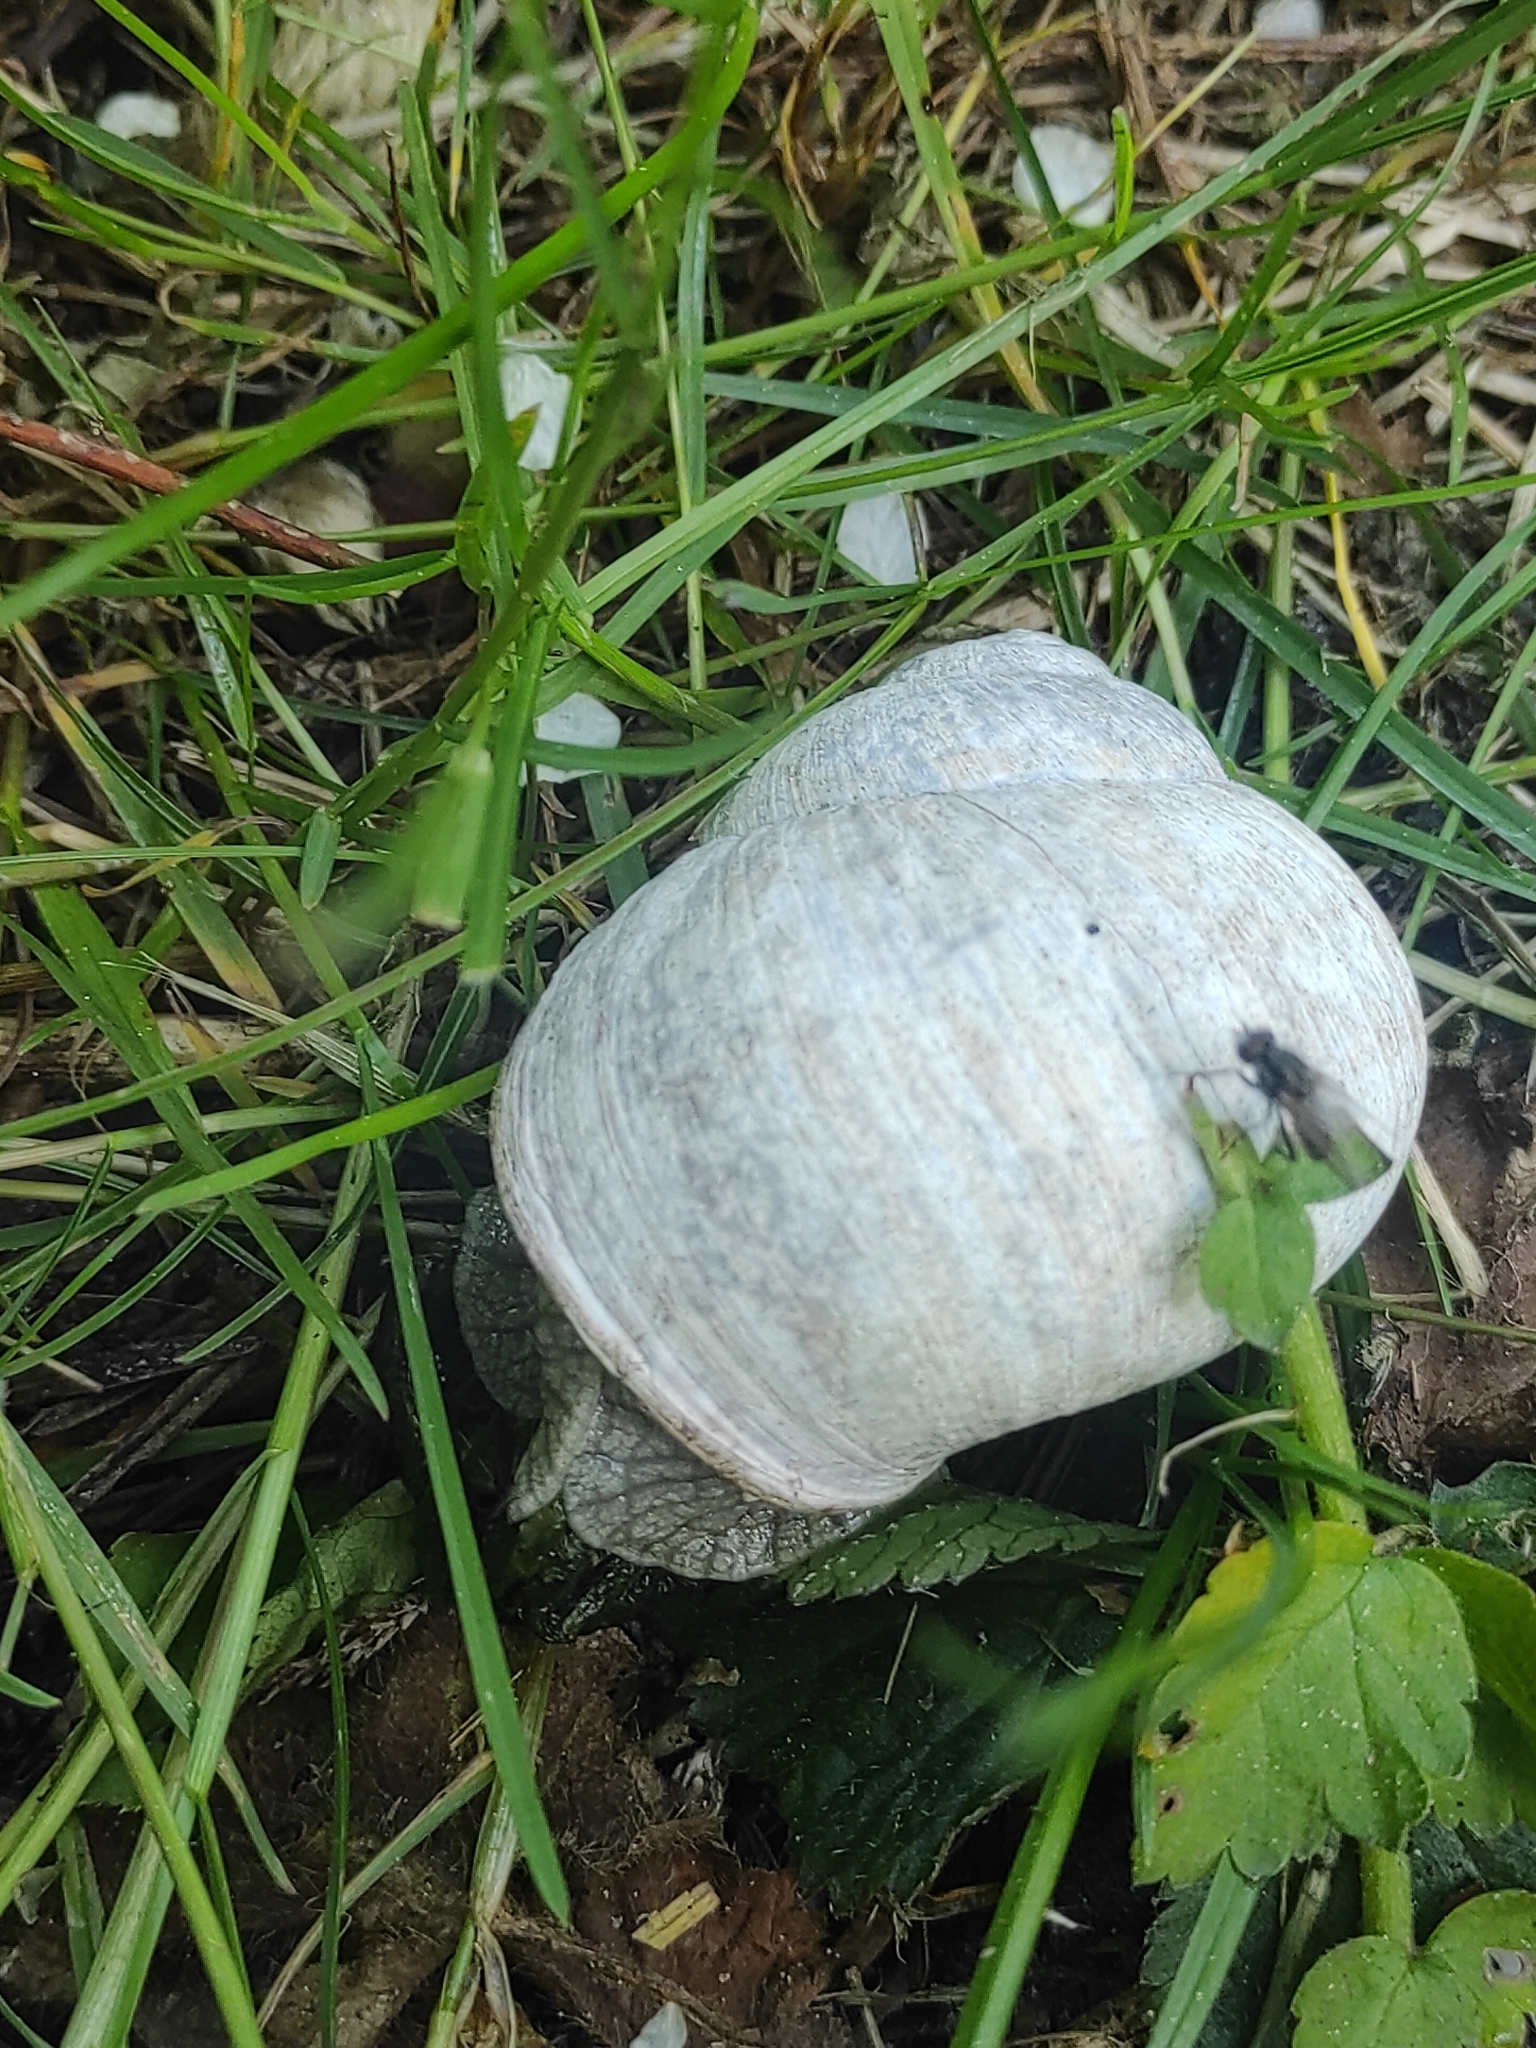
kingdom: Animalia
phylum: Mollusca
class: Gastropoda
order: Stylommatophora
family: Helicidae
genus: Helix
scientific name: Helix pomatia
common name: Roman snail
